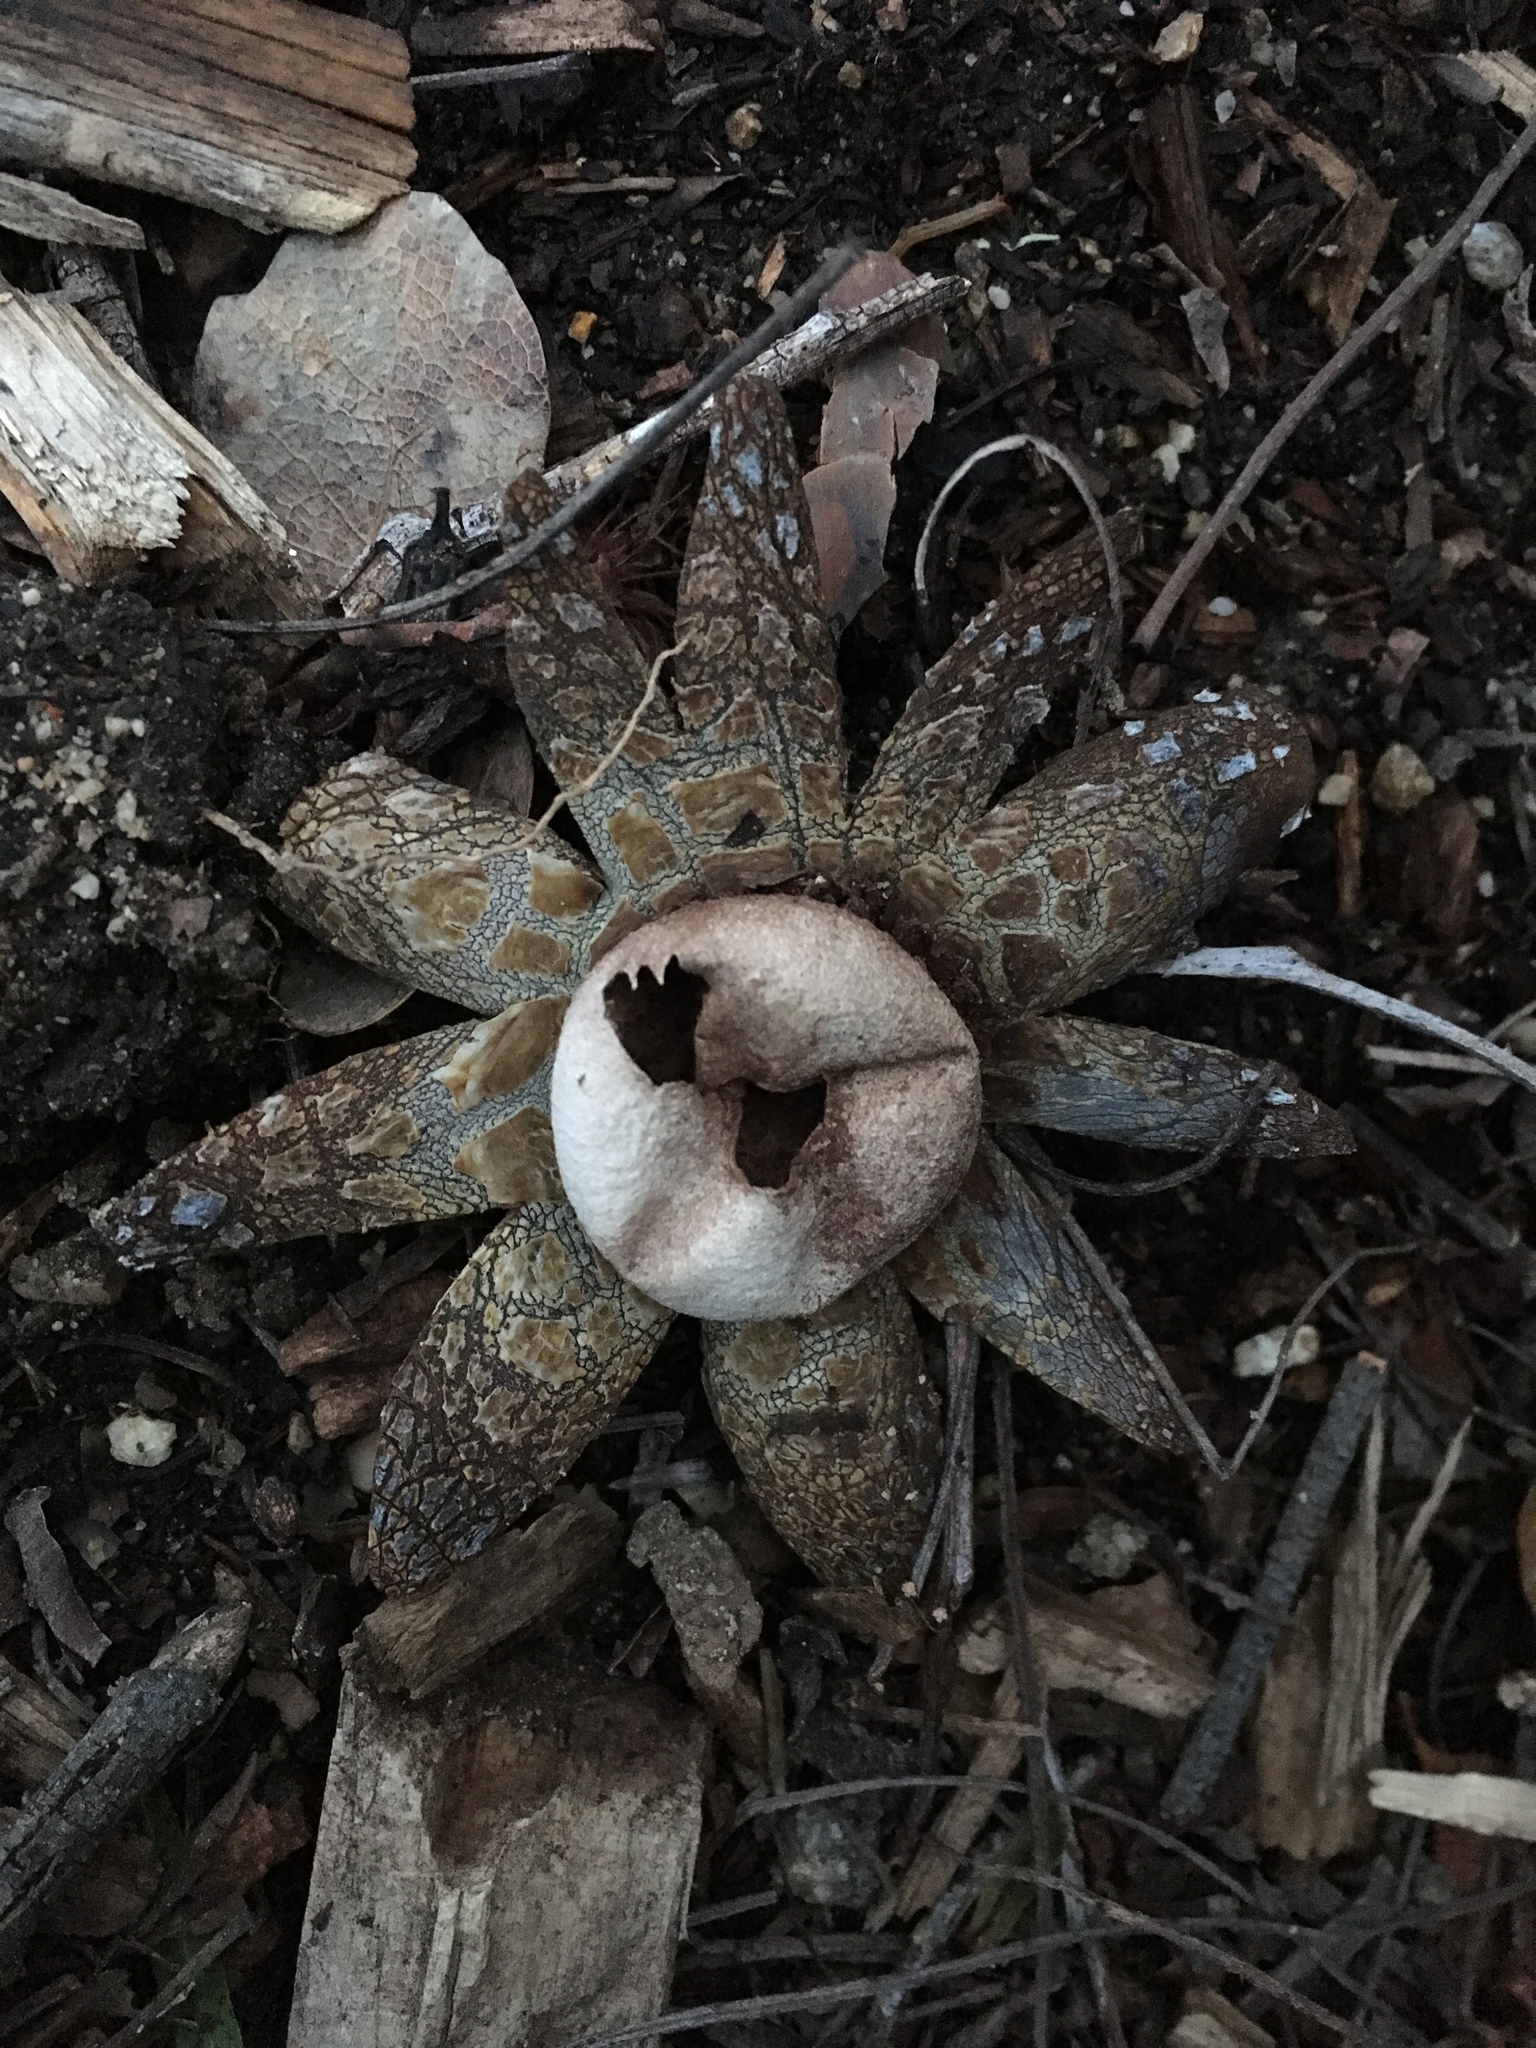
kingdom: Fungi
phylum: Basidiomycota
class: Agaricomycetes
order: Boletales
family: Diplocystidiaceae
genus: Astraeus
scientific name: Astraeus hygrometricus
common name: Barometer earthstar
